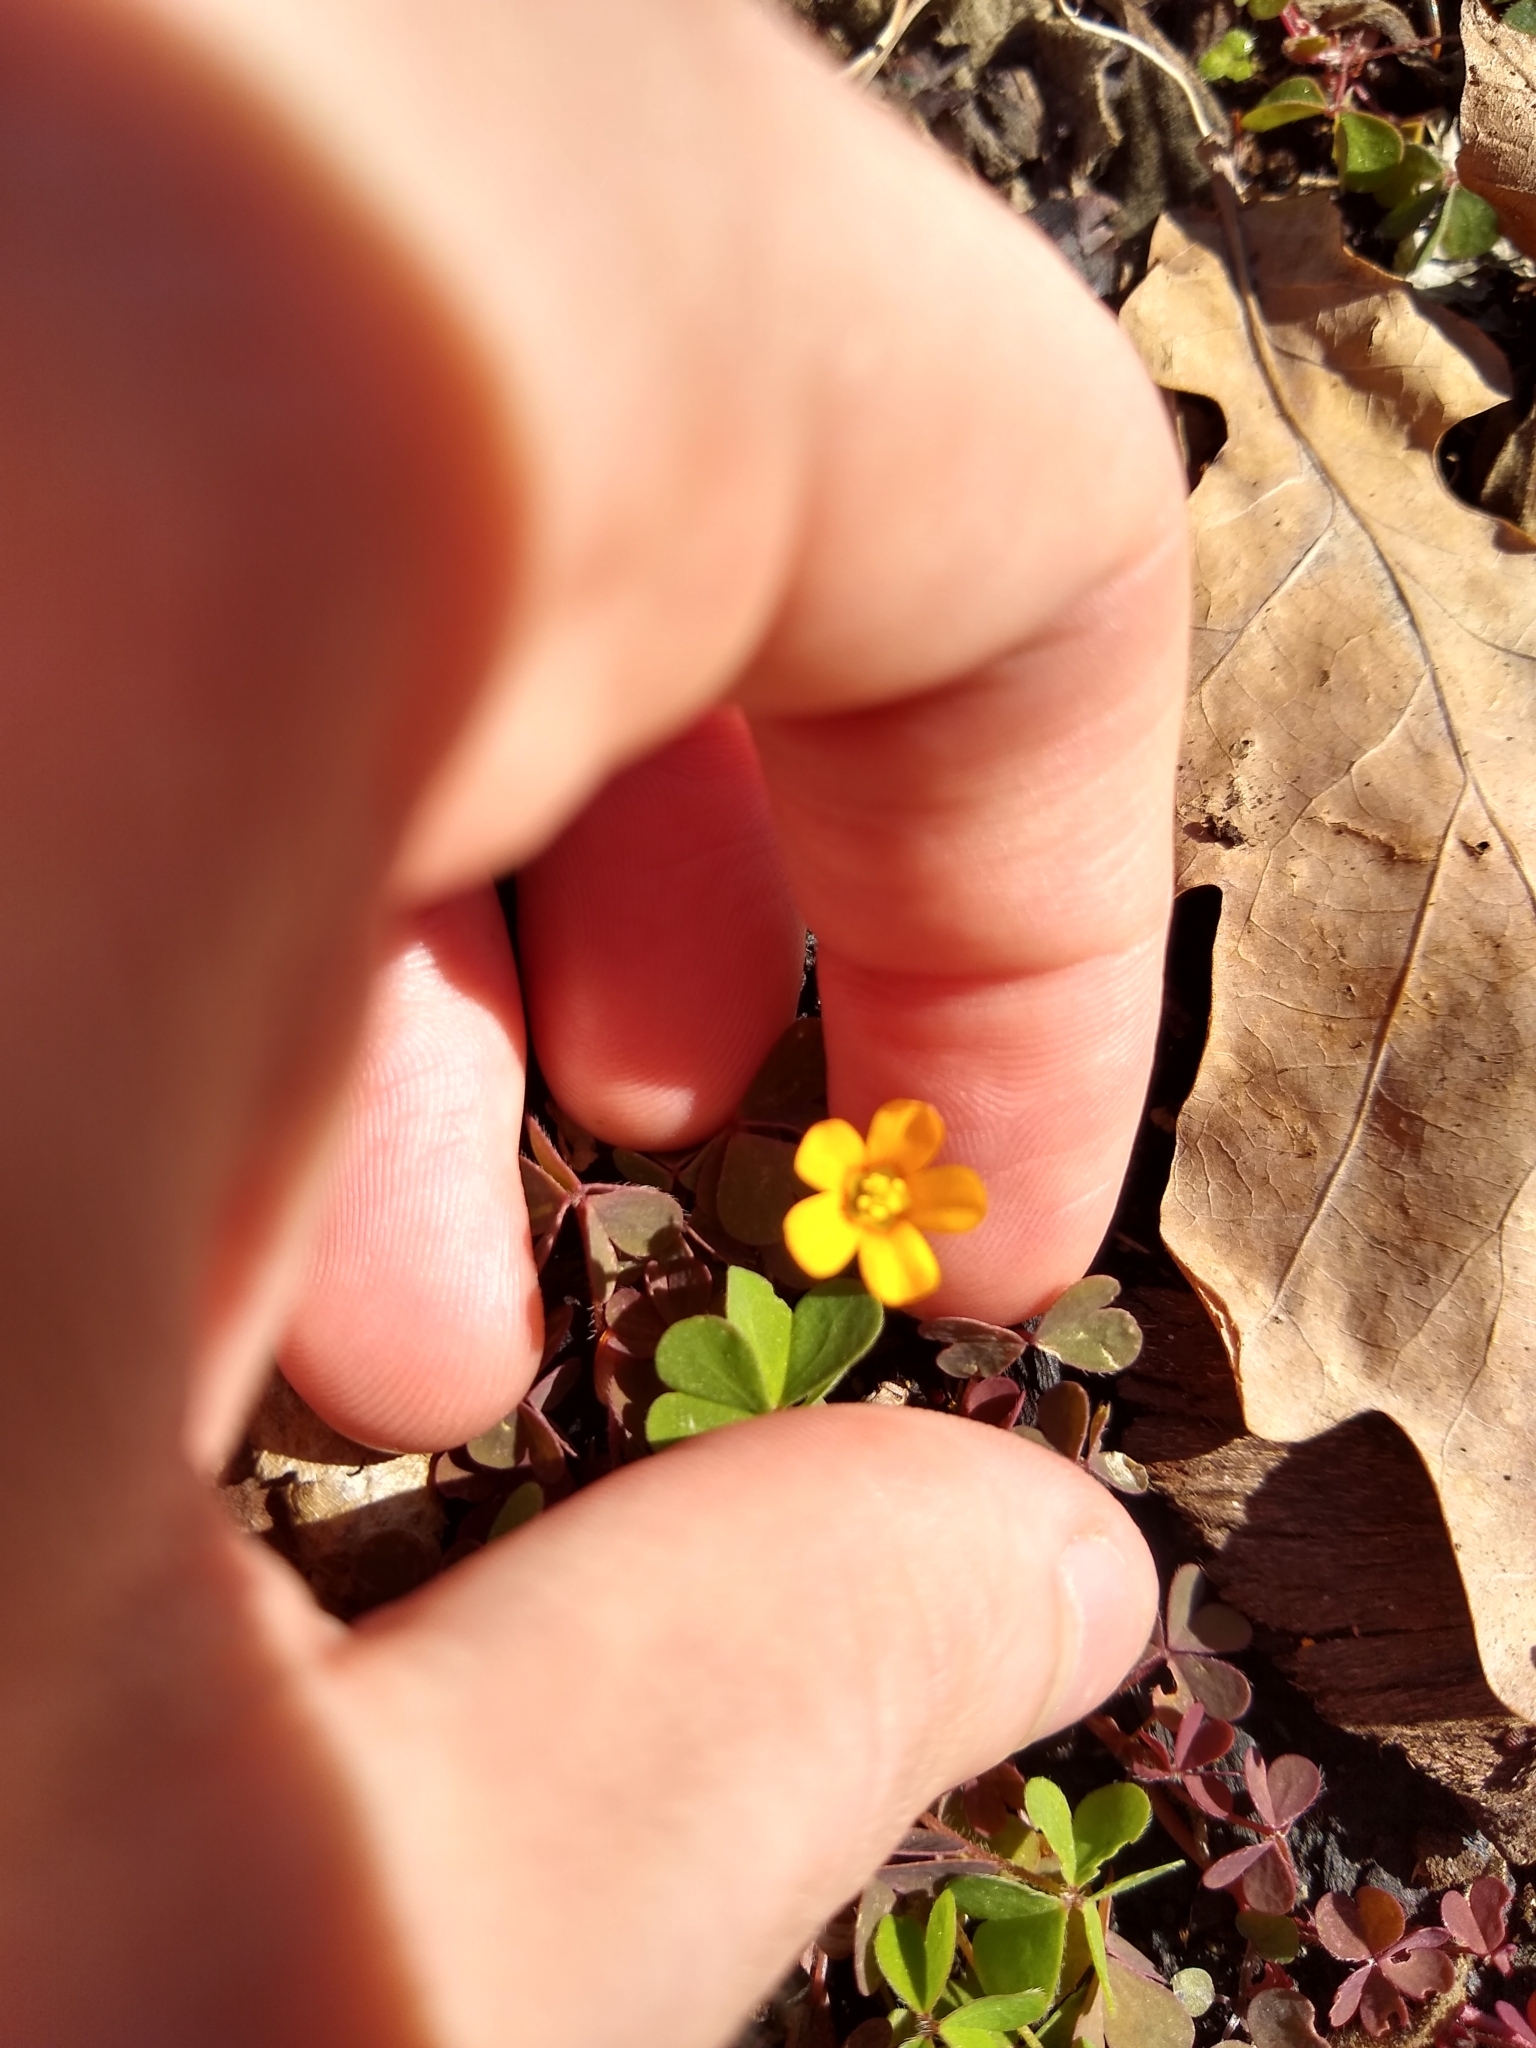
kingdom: Plantae
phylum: Tracheophyta
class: Magnoliopsida
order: Oxalidales
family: Oxalidaceae
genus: Oxalis
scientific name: Oxalis corniculata
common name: Procumbent yellow-sorrel
